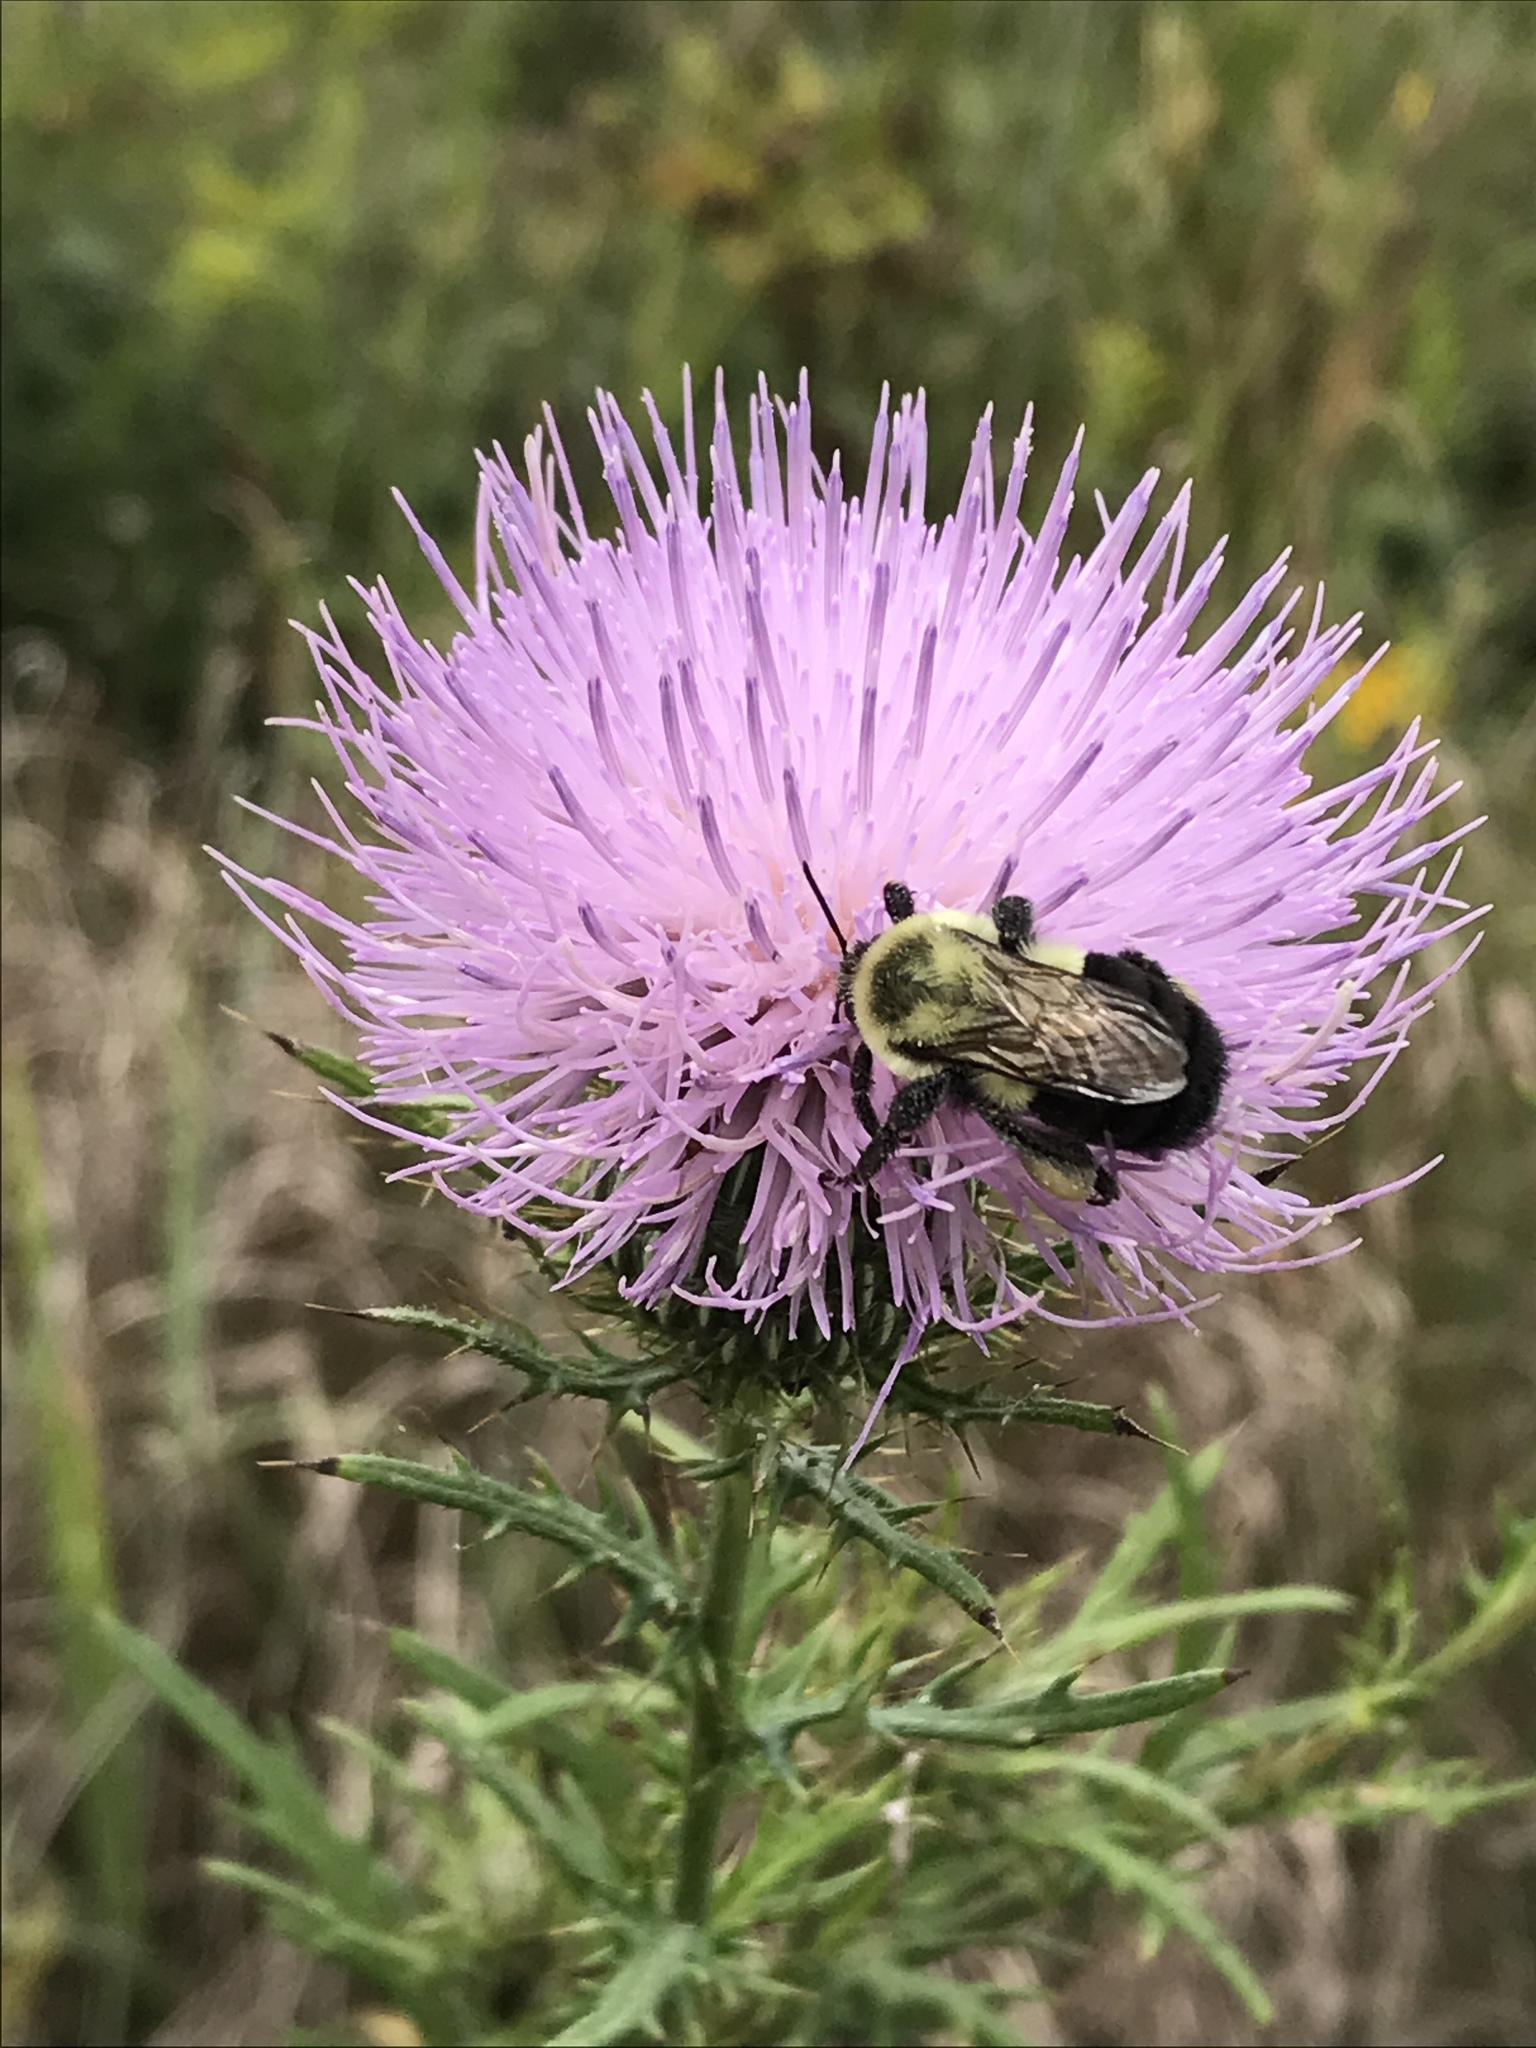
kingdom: Animalia
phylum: Arthropoda
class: Insecta
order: Hymenoptera
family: Apidae
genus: Bombus
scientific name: Bombus impatiens
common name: Common eastern bumble bee
